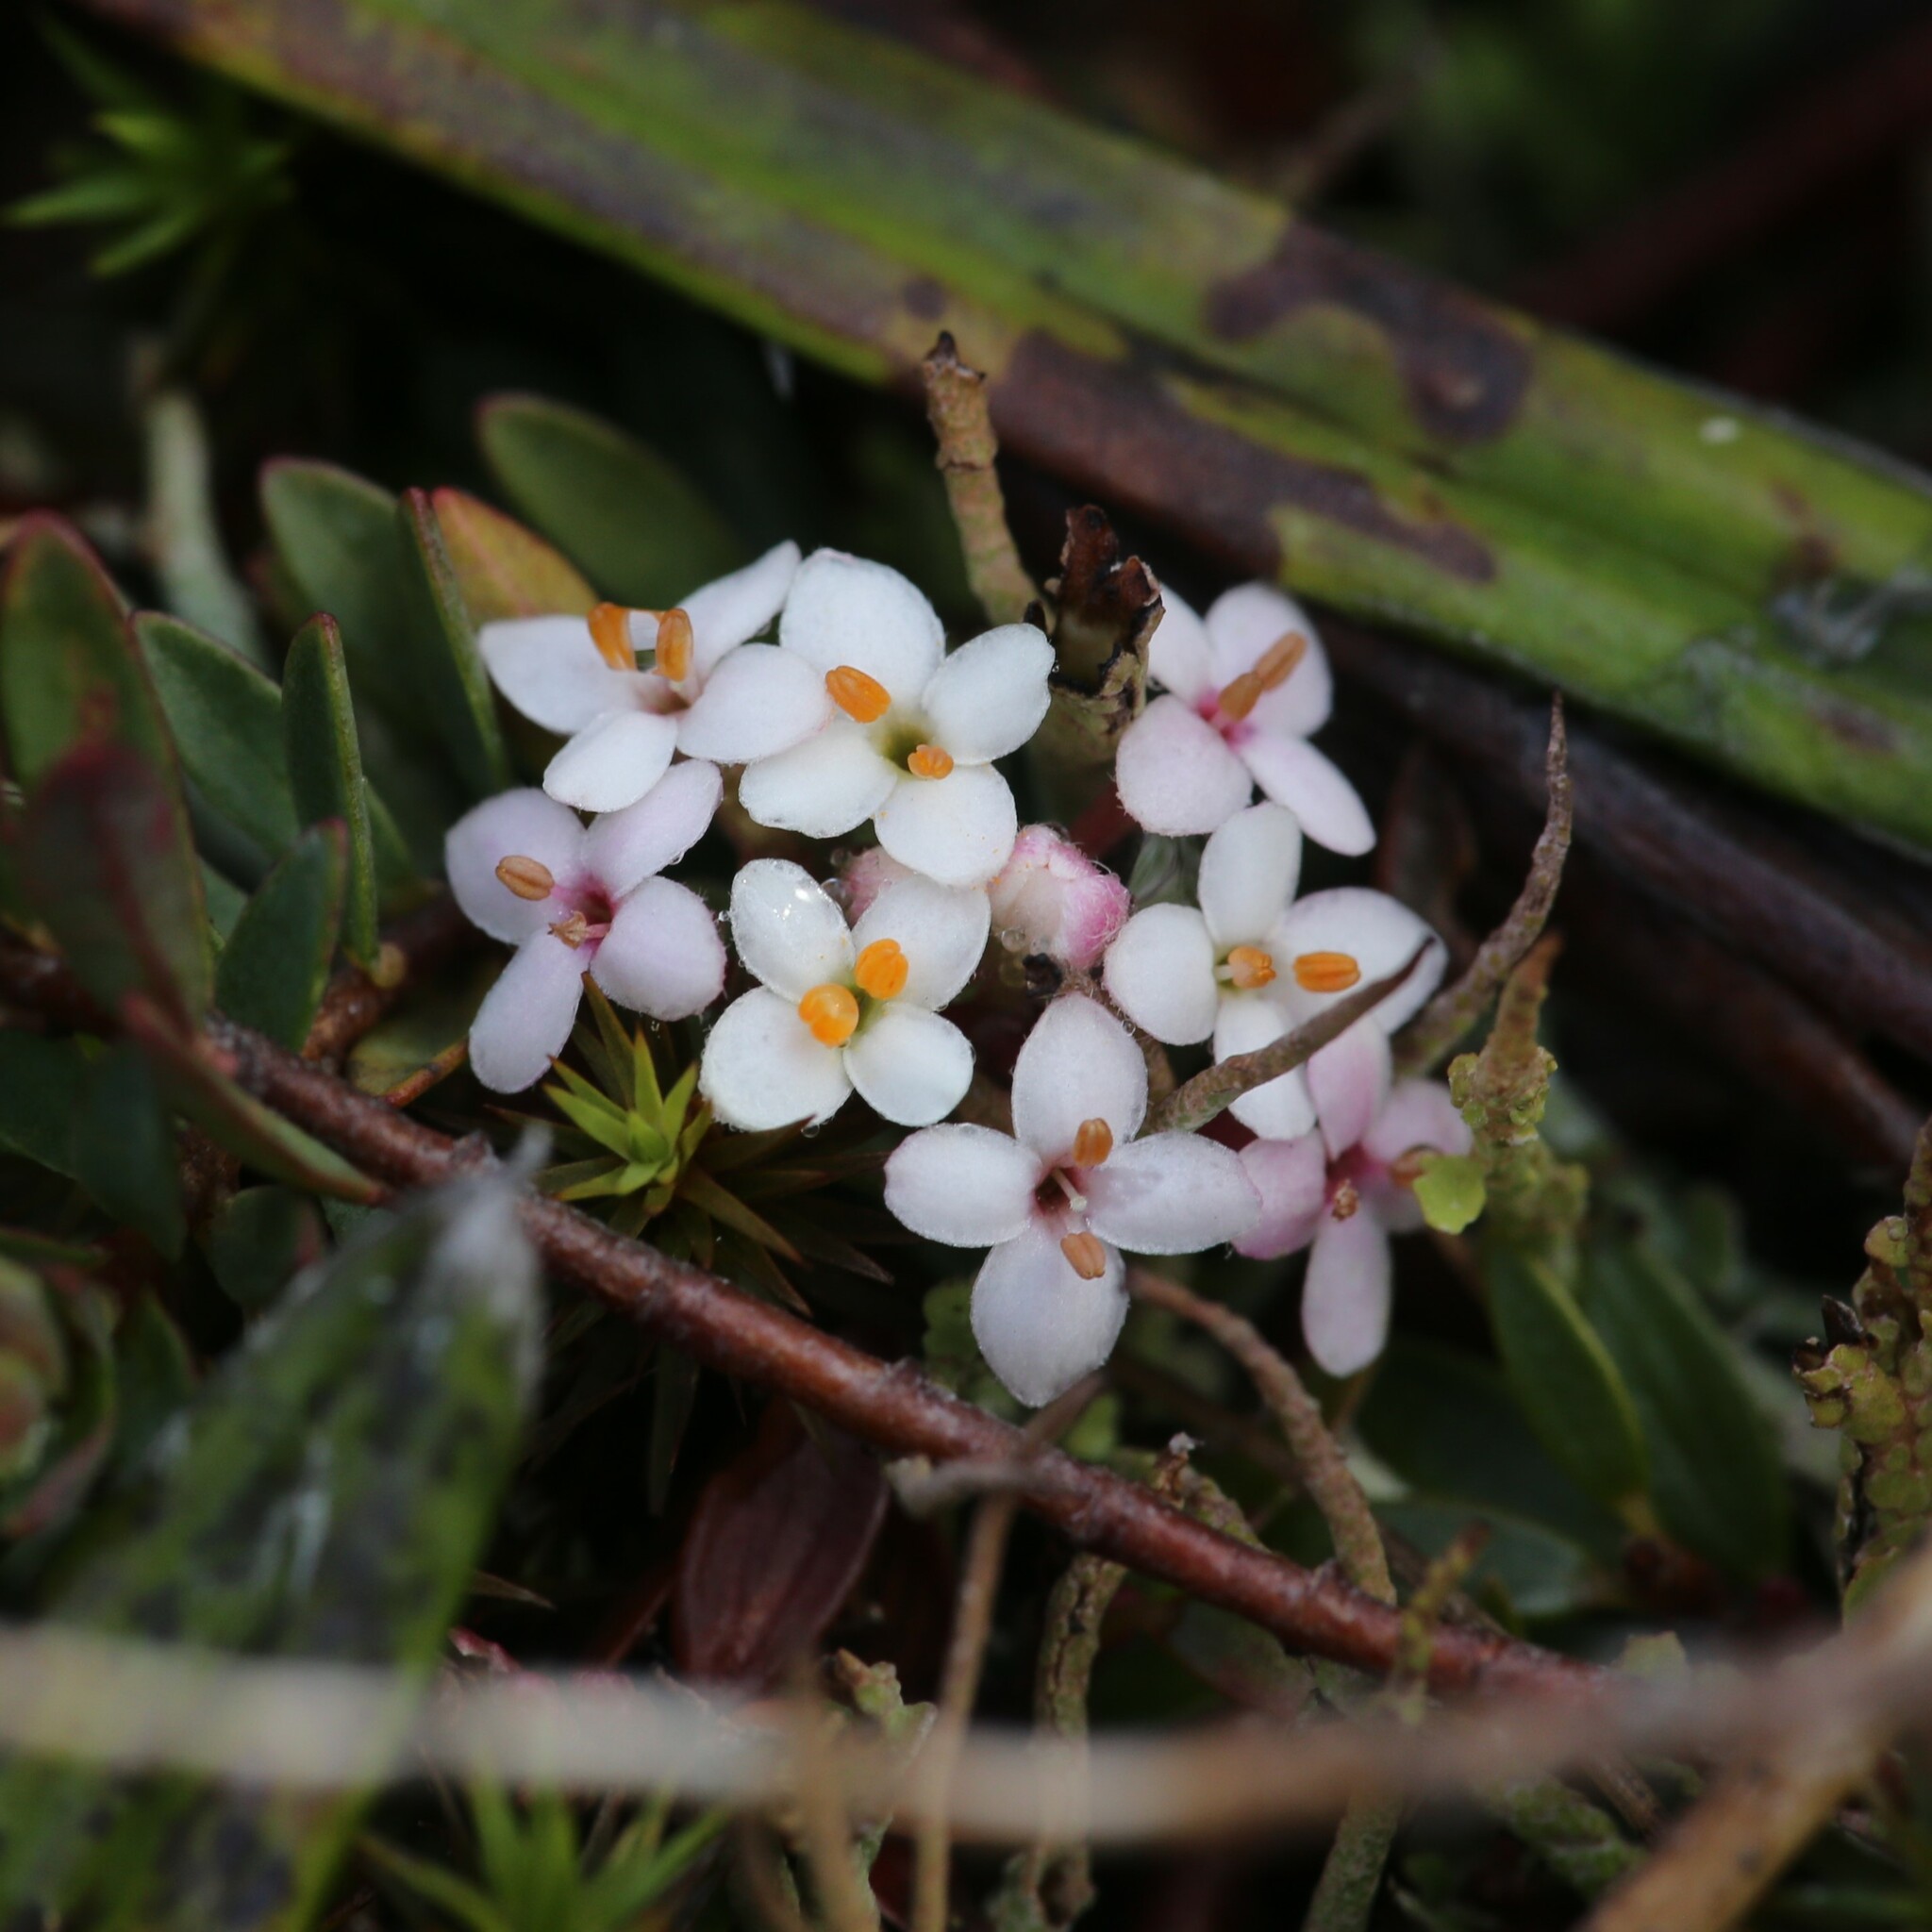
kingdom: Plantae
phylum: Tracheophyta
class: Magnoliopsida
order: Malvales
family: Thymelaeaceae
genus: Pimelea
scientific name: Pimelea alpina
